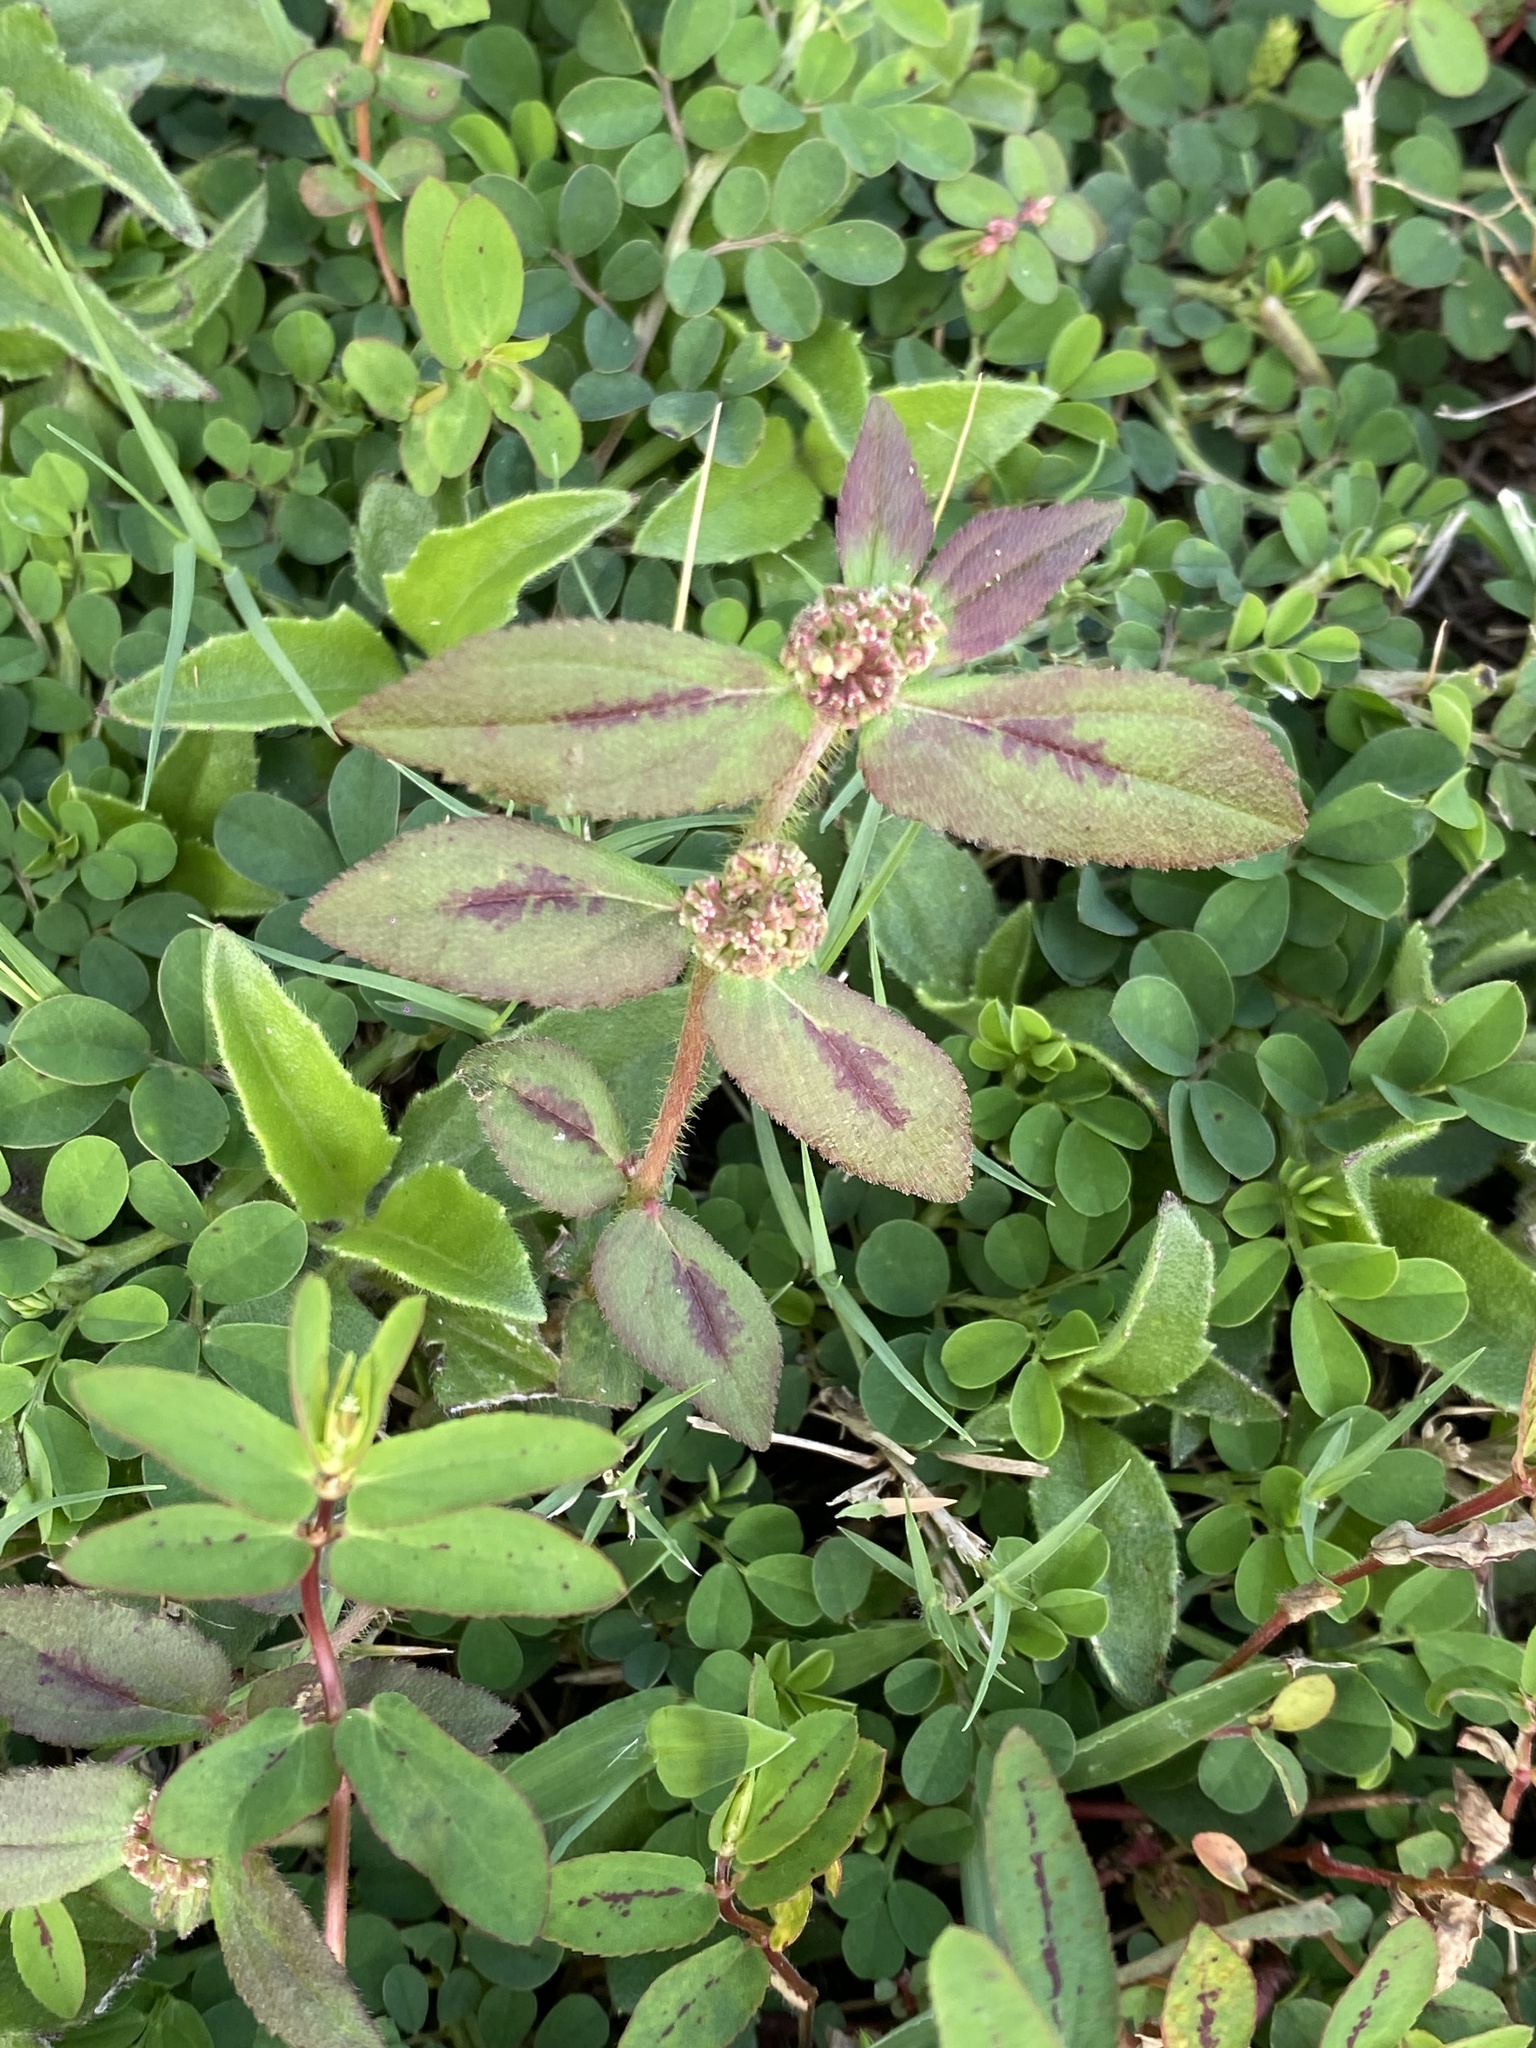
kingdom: Plantae
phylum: Tracheophyta
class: Magnoliopsida
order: Malpighiales
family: Euphorbiaceae
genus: Euphorbia
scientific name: Euphorbia hirta
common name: Pillpod sandmat
